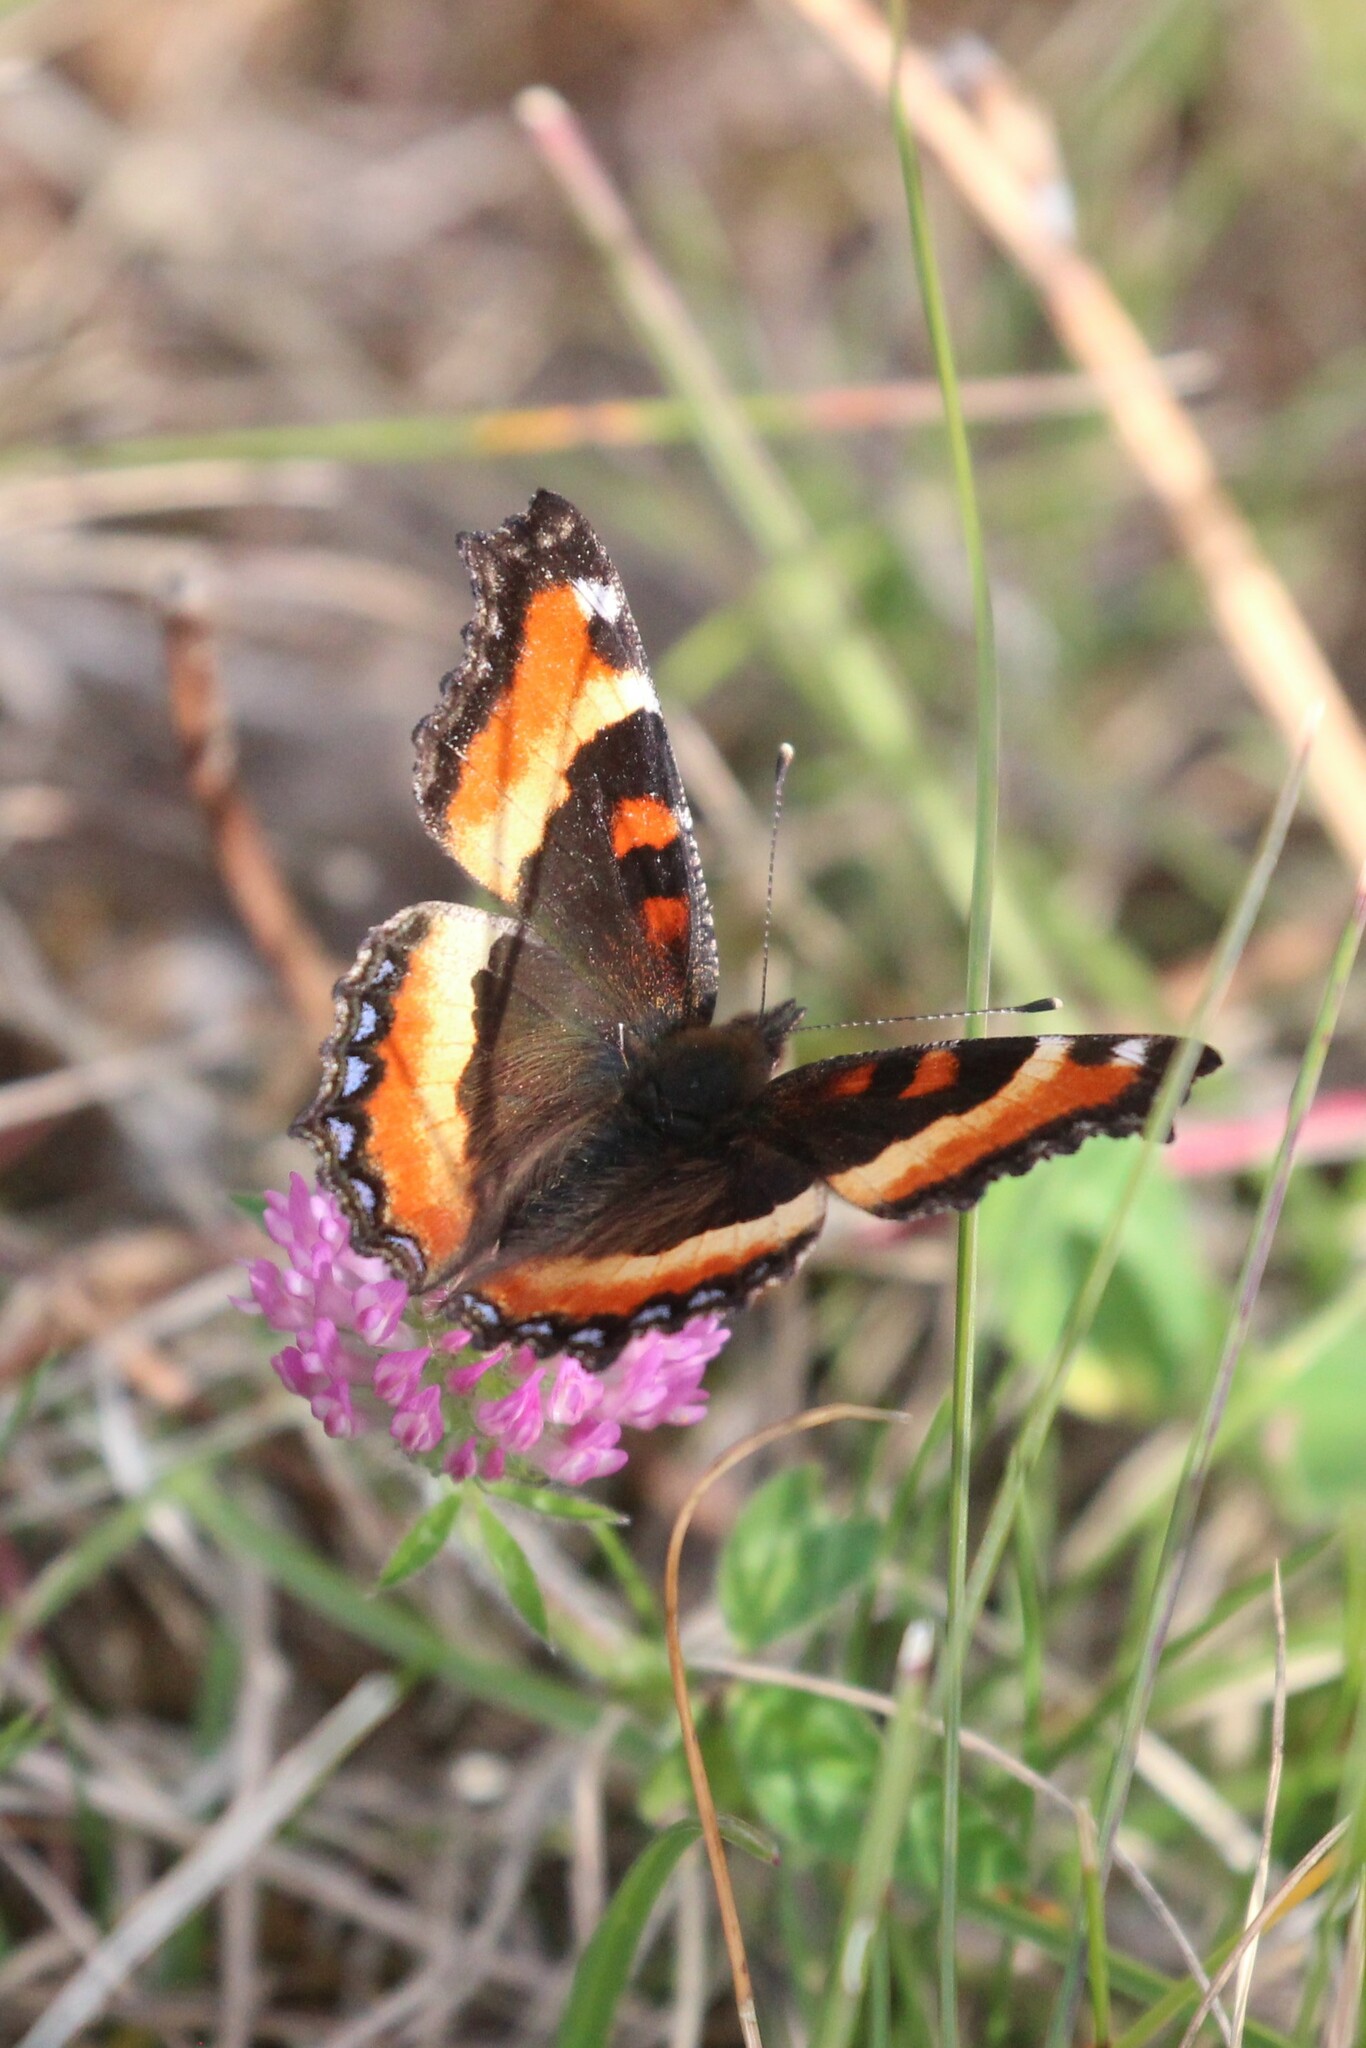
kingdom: Animalia
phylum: Arthropoda
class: Insecta
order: Lepidoptera
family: Nymphalidae
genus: Aglais
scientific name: Aglais milberti
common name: Milbert's tortoiseshell
